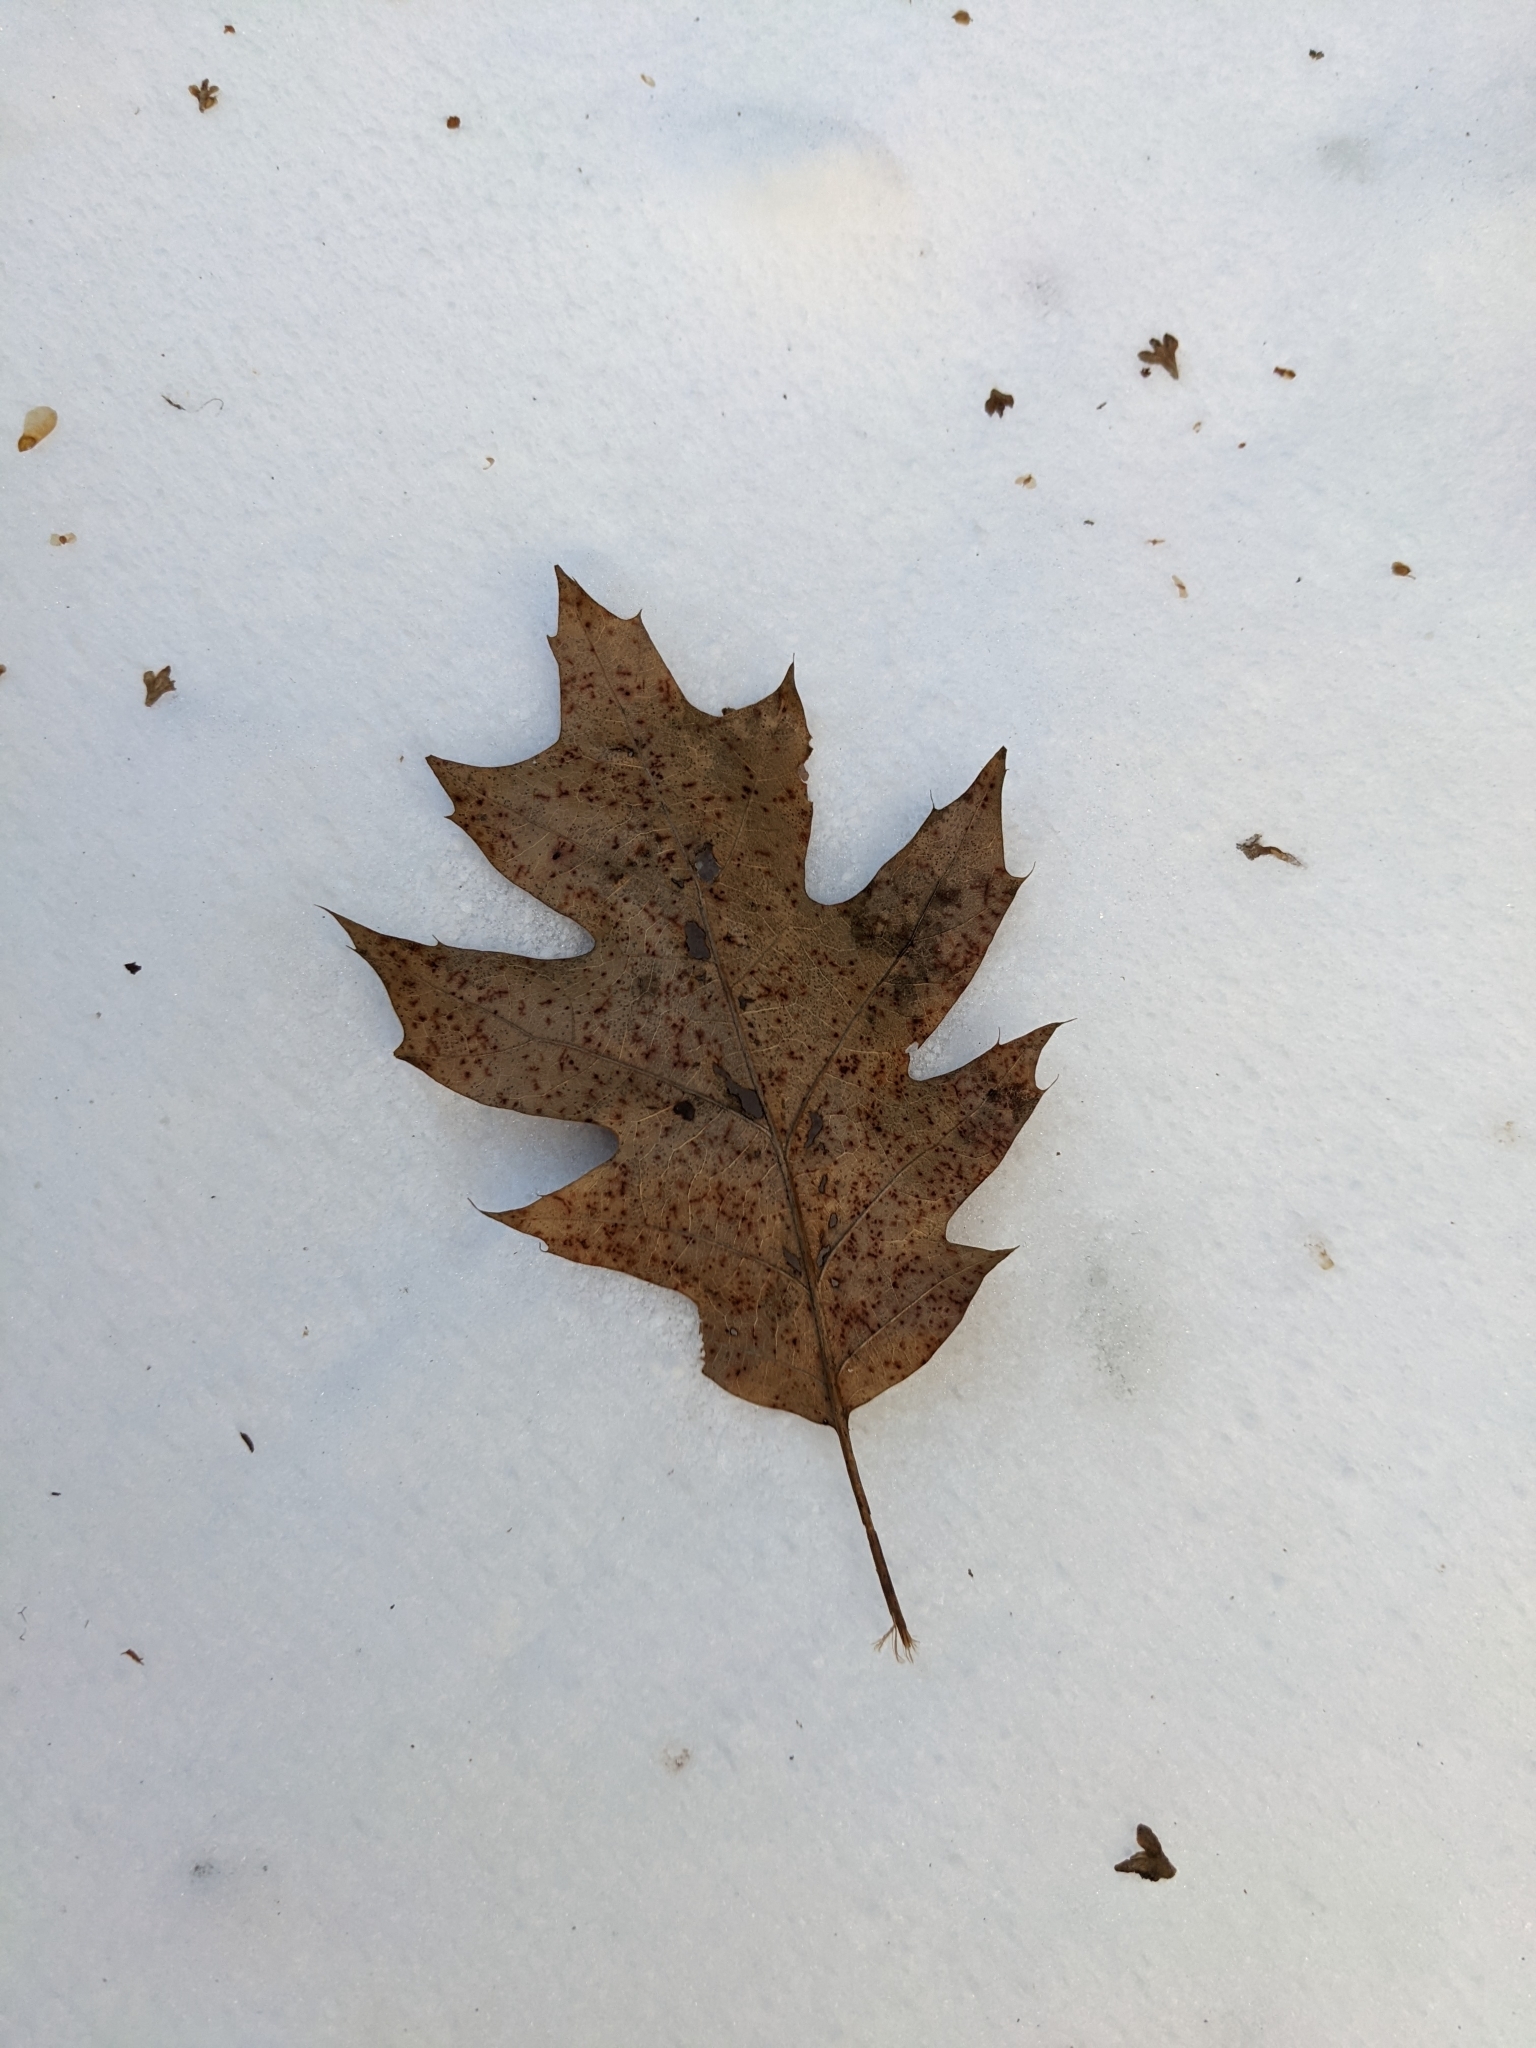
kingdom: Plantae
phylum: Tracheophyta
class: Magnoliopsida
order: Fagales
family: Fagaceae
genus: Quercus
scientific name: Quercus rubra
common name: Red oak
